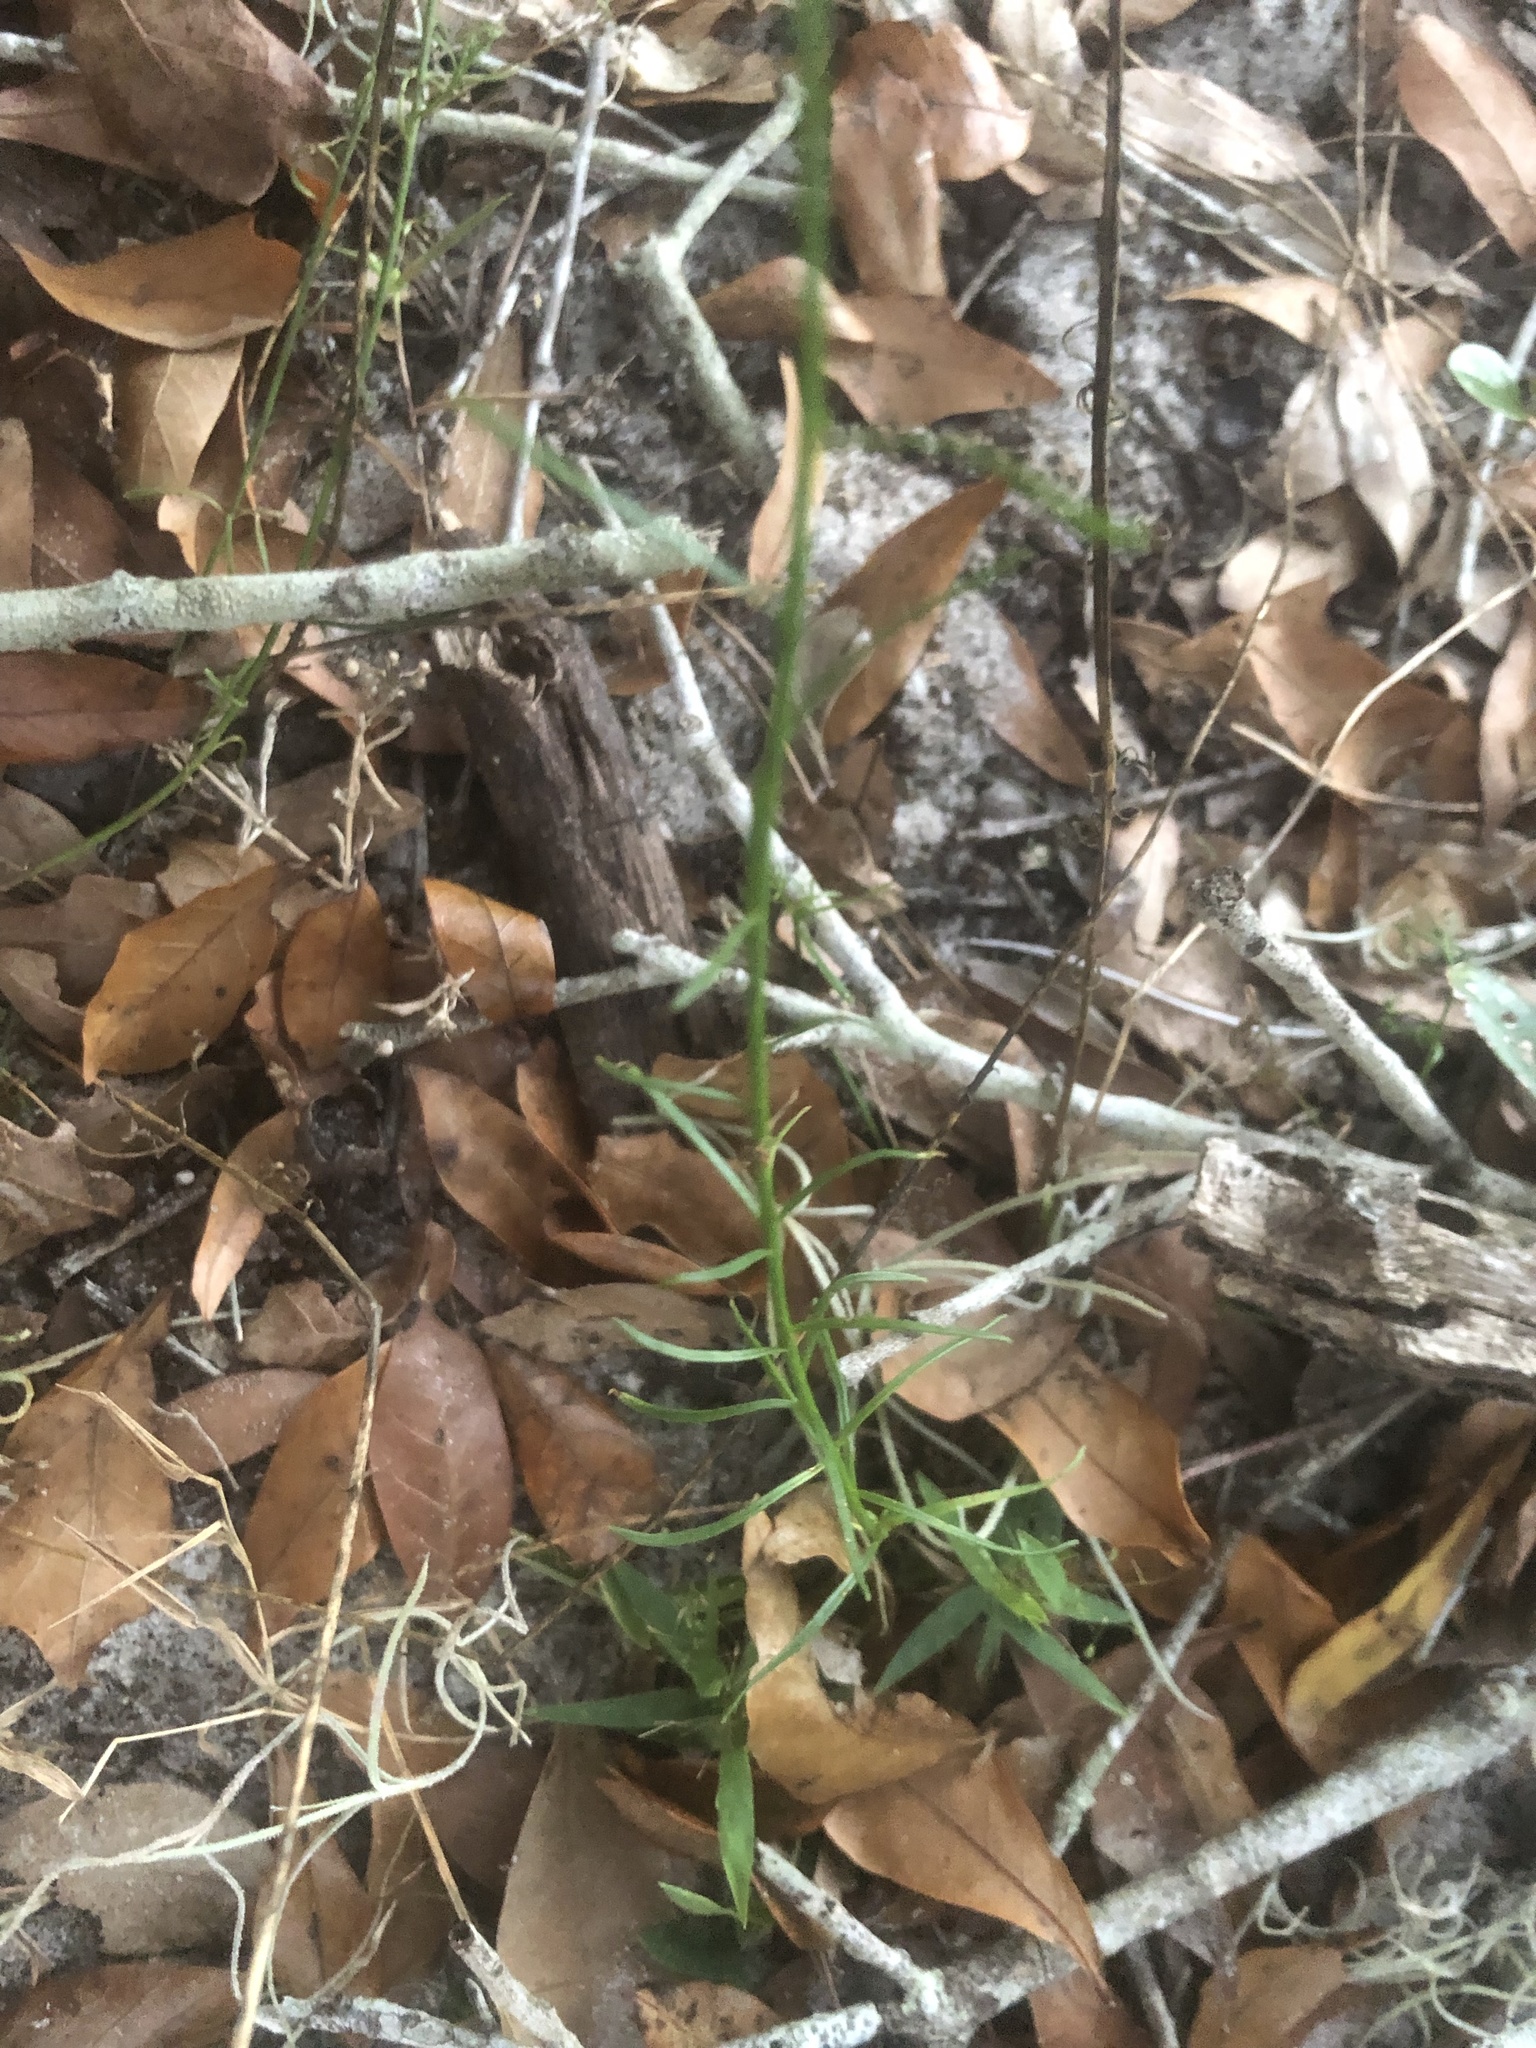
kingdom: Plantae
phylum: Tracheophyta
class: Magnoliopsida
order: Lamiales
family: Plantaginaceae
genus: Nuttallanthus
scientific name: Nuttallanthus canadensis
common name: Blue toadflax
